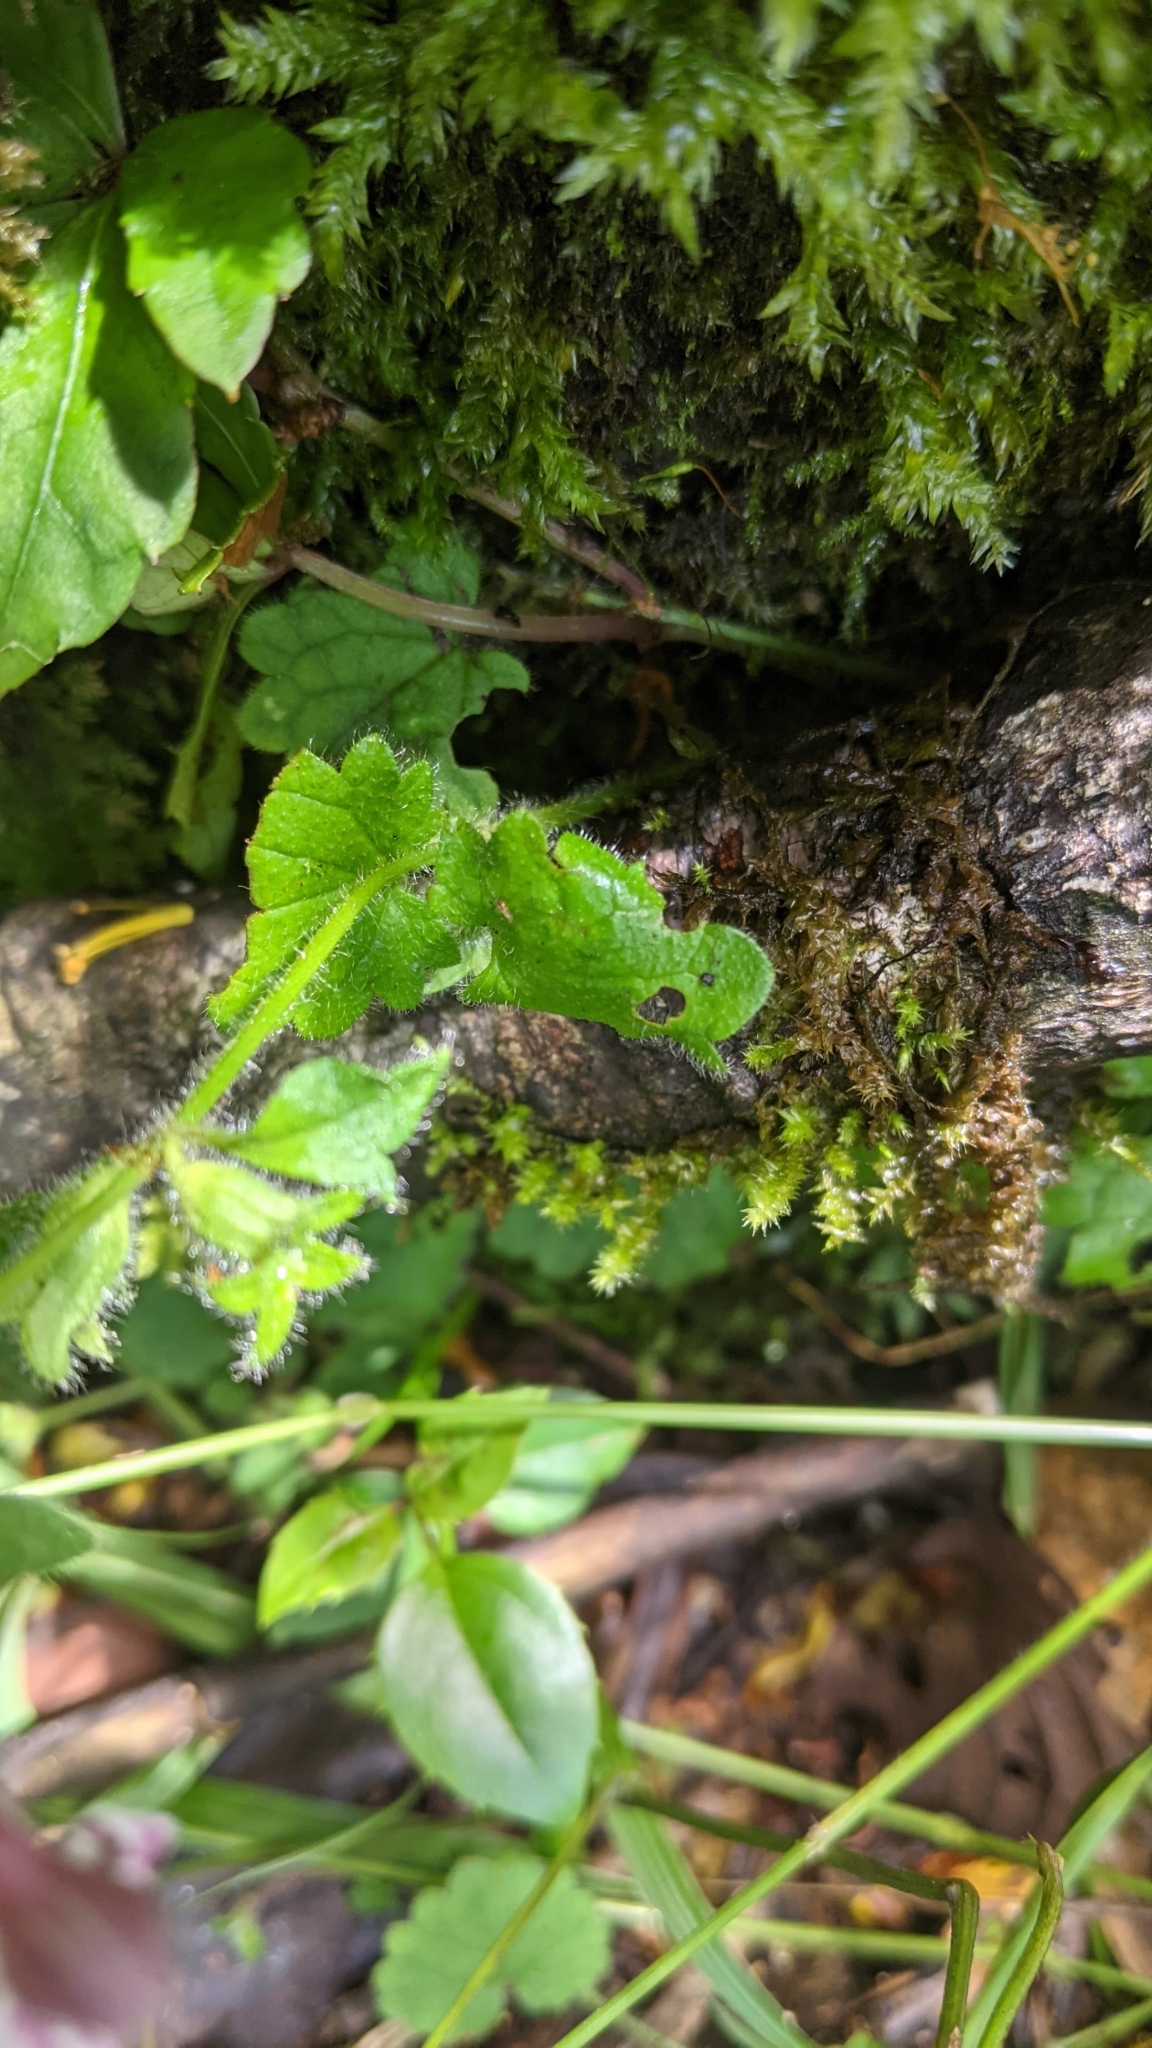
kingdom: Plantae
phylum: Tracheophyta
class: Magnoliopsida
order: Lamiales
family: Lamiaceae
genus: Suzukia
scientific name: Suzukia shikikunensis
